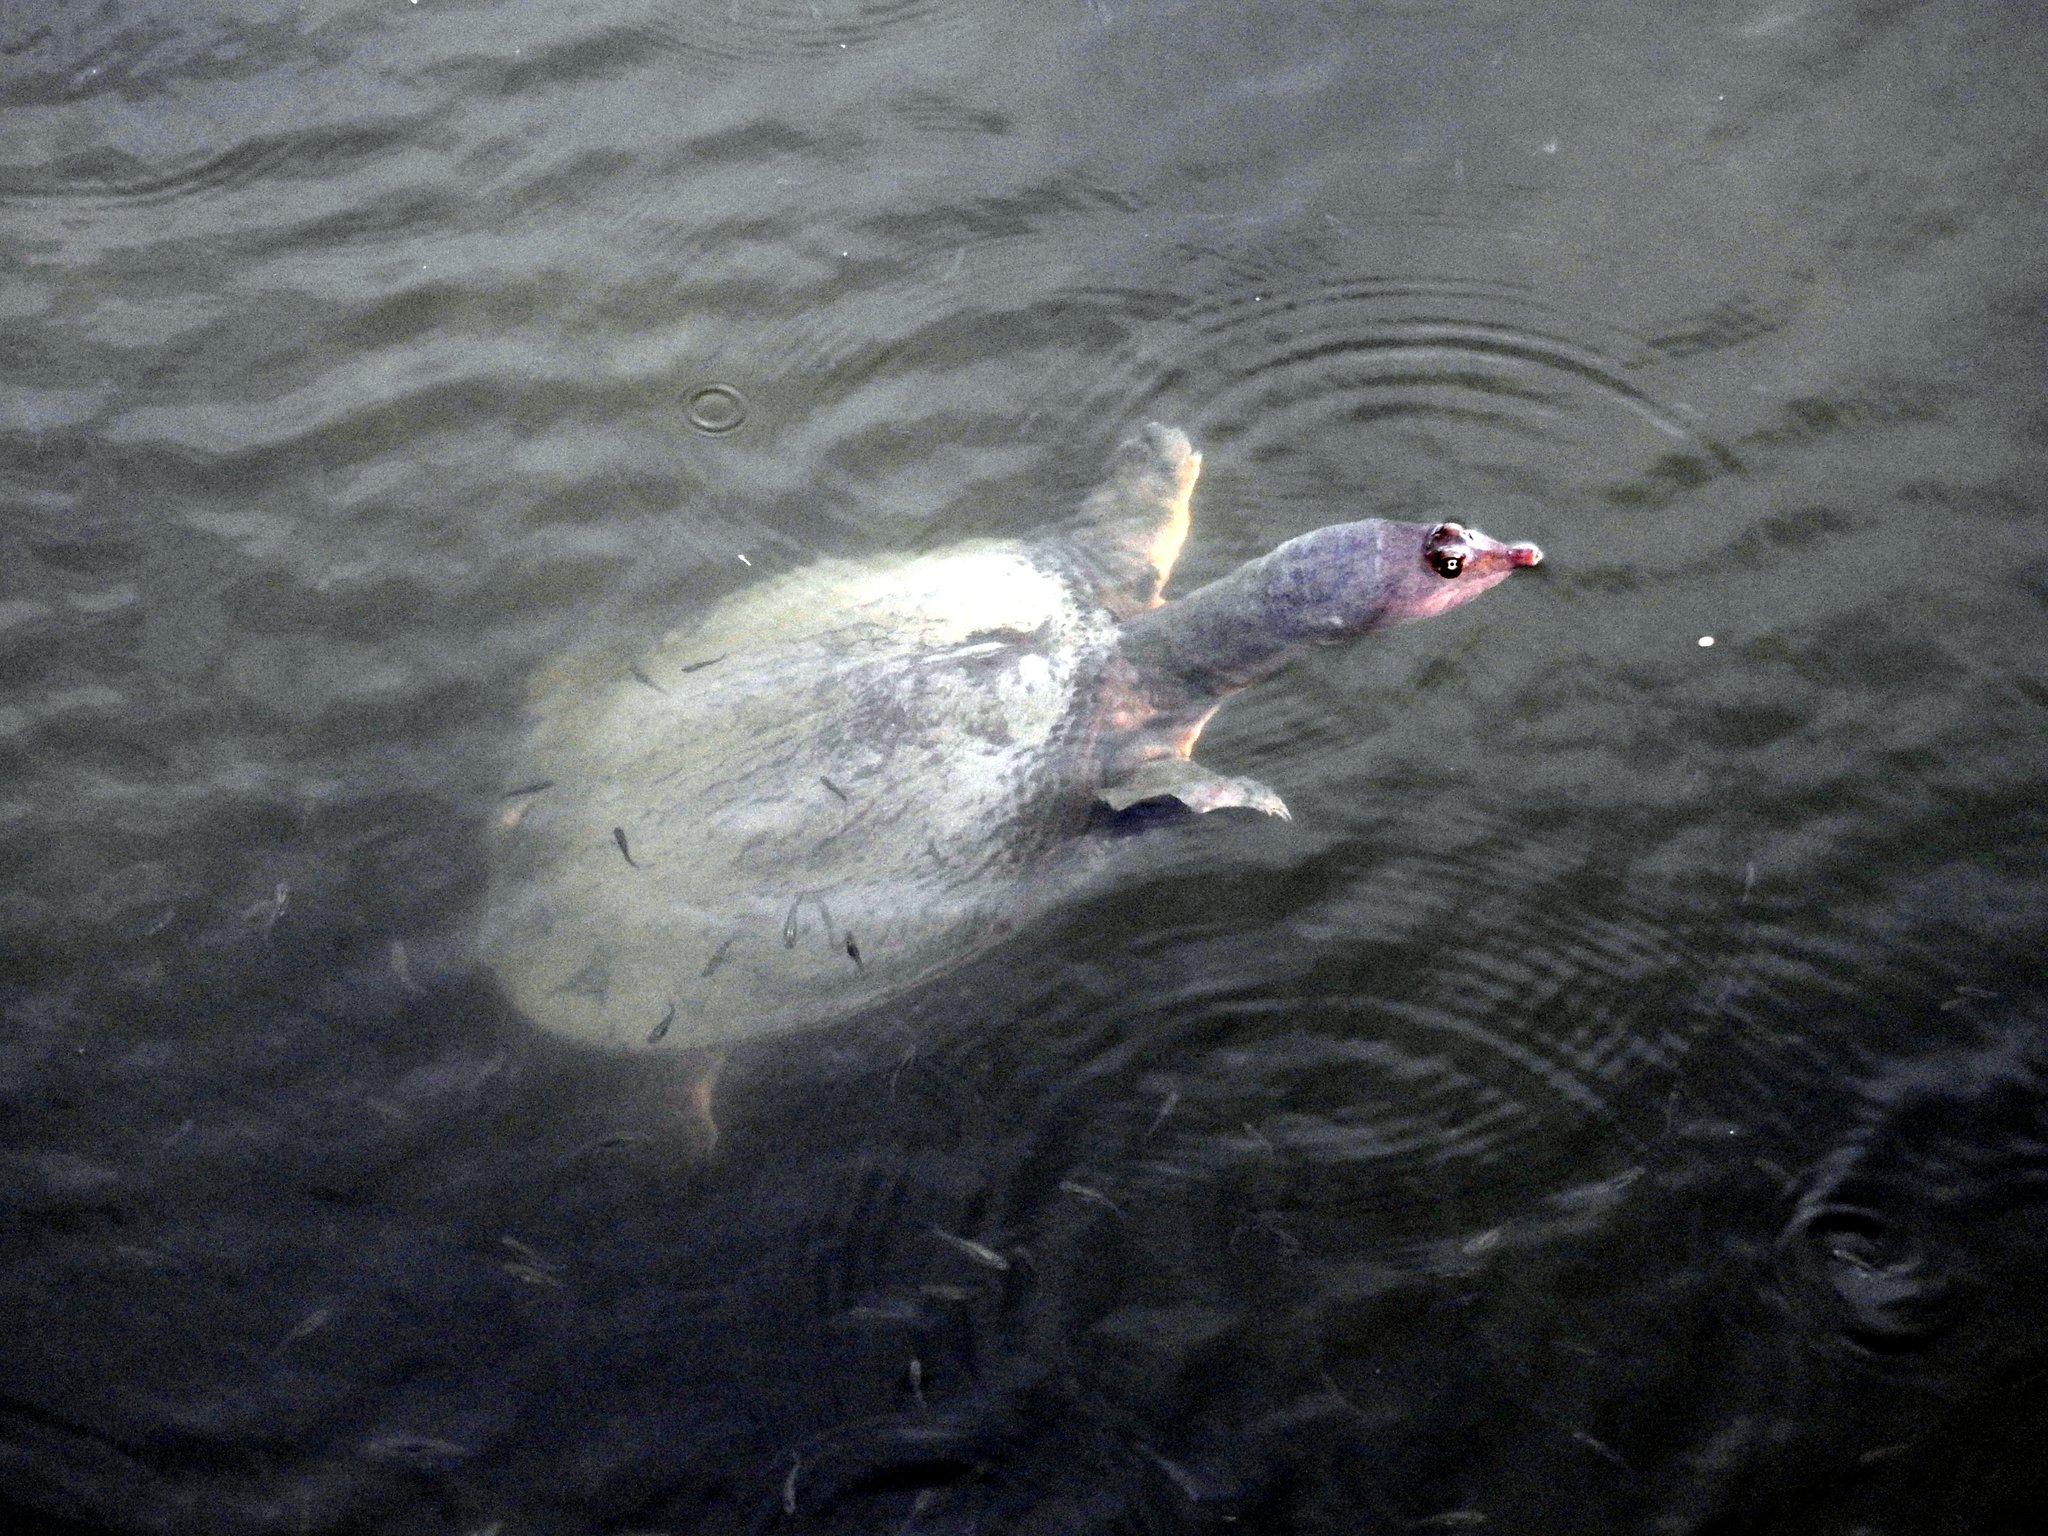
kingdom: Animalia
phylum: Chordata
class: Testudines
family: Trionychidae
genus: Apalone
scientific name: Apalone ferox
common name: Florida softshell turtle
